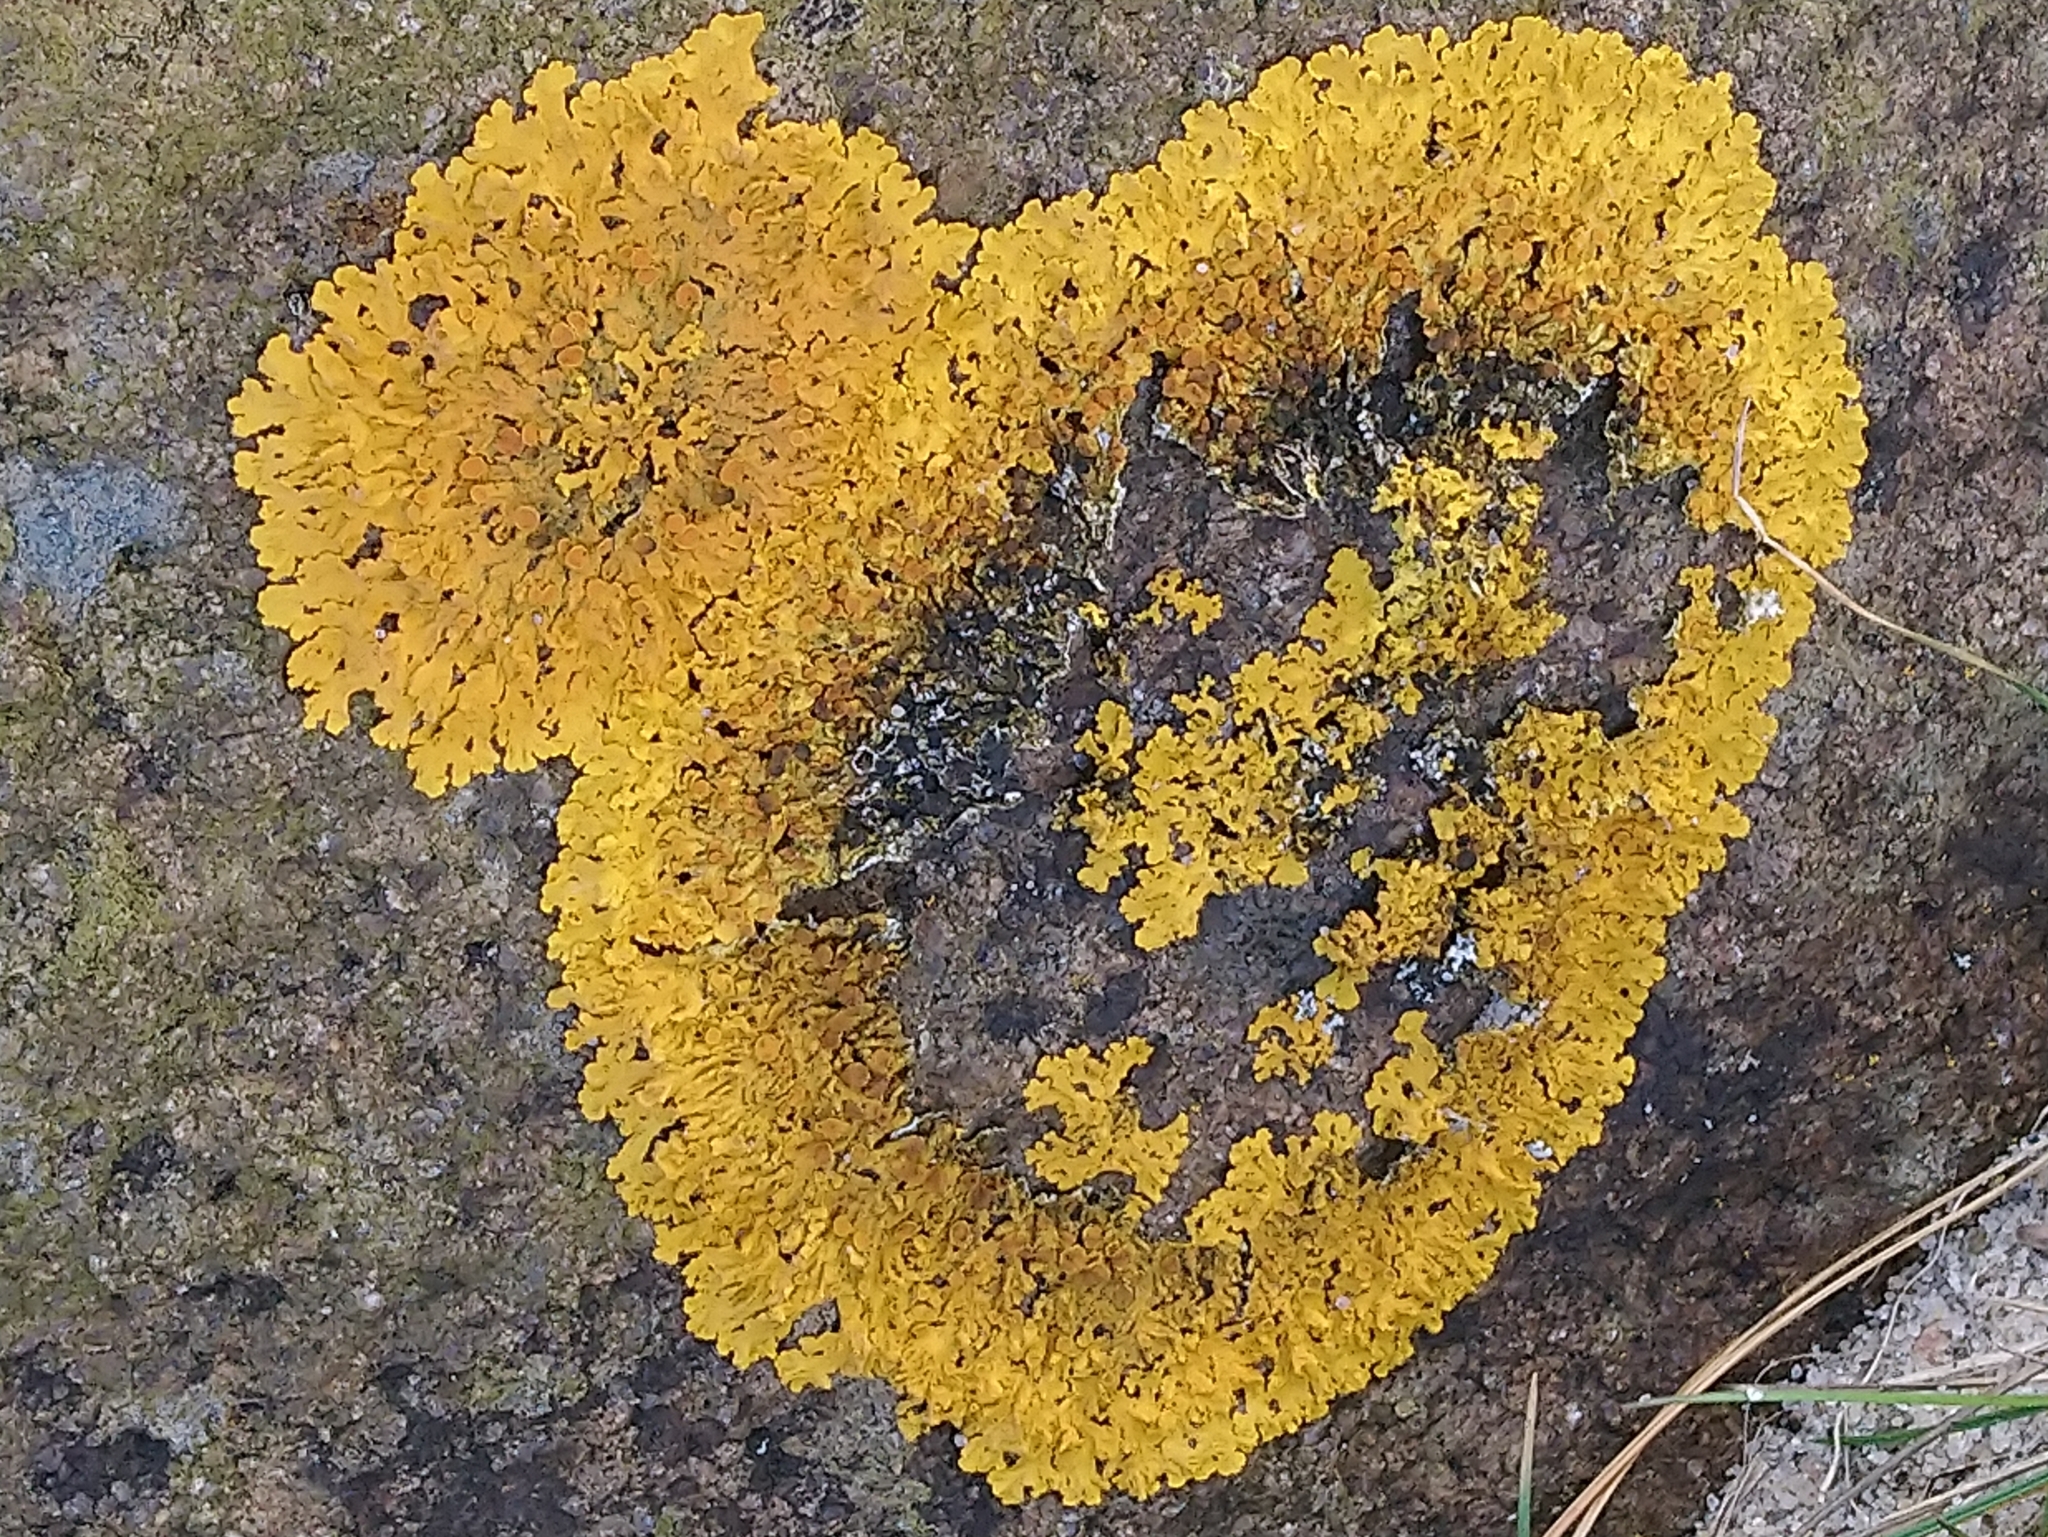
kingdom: Fungi
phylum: Ascomycota
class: Lecanoromycetes
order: Teloschistales
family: Teloschistaceae
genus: Xanthoria
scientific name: Xanthoria parietina
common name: Common orange lichen
